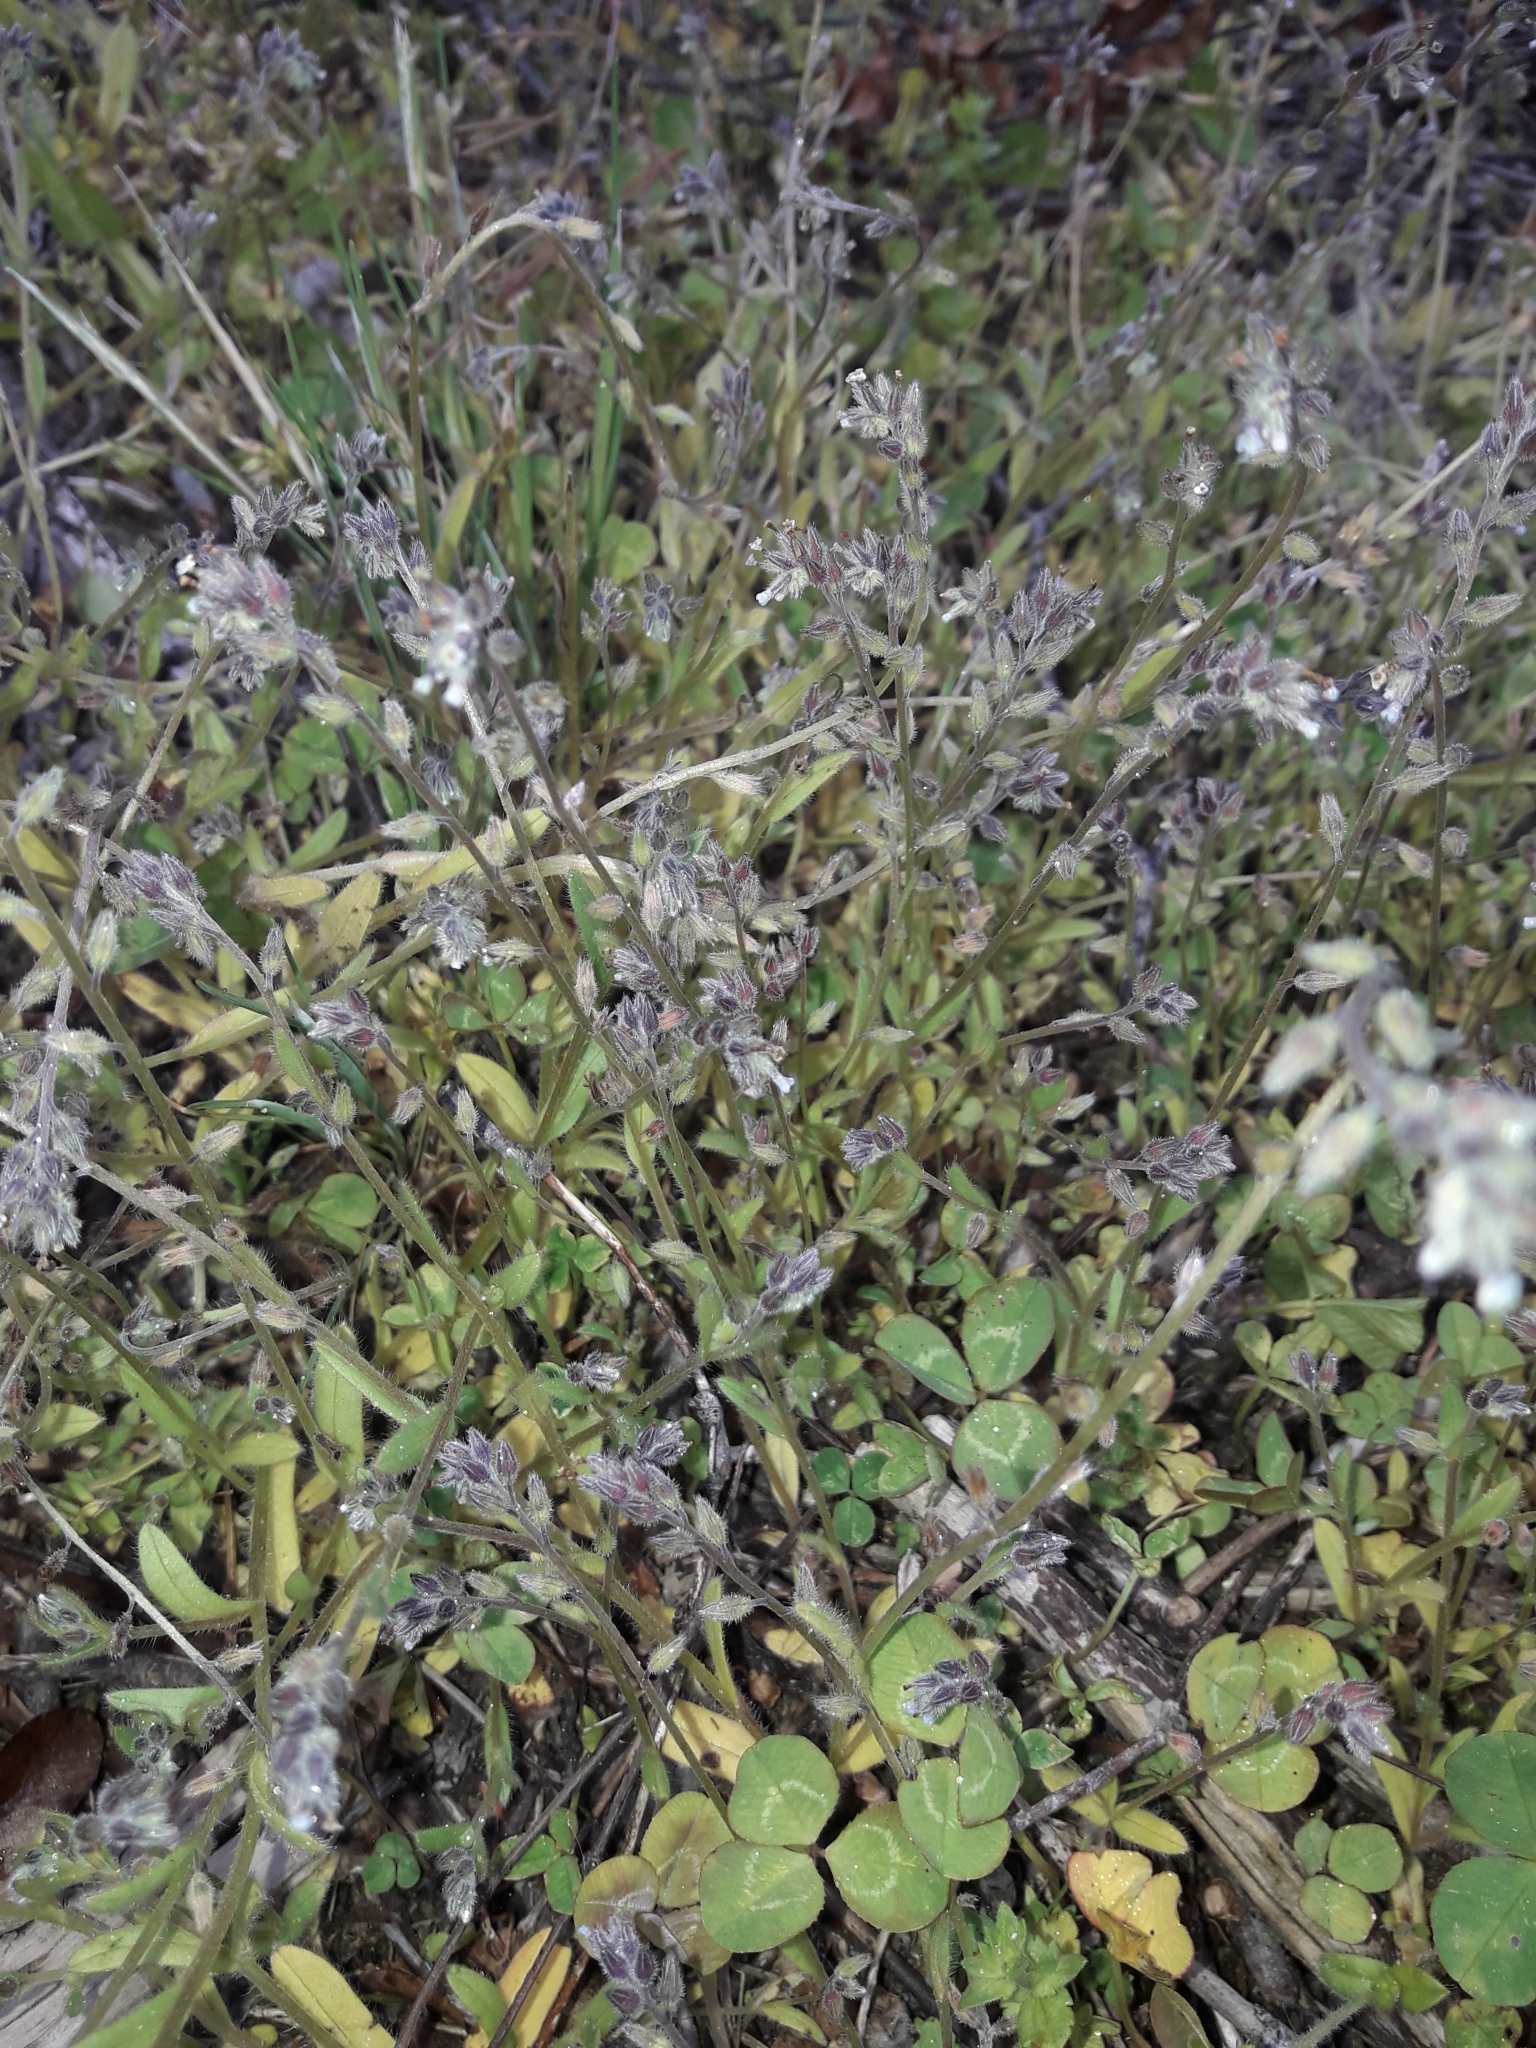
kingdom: Plantae
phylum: Tracheophyta
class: Magnoliopsida
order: Boraginales
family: Boraginaceae
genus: Myosotis
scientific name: Myosotis discolor
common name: Changing forget-me-not
